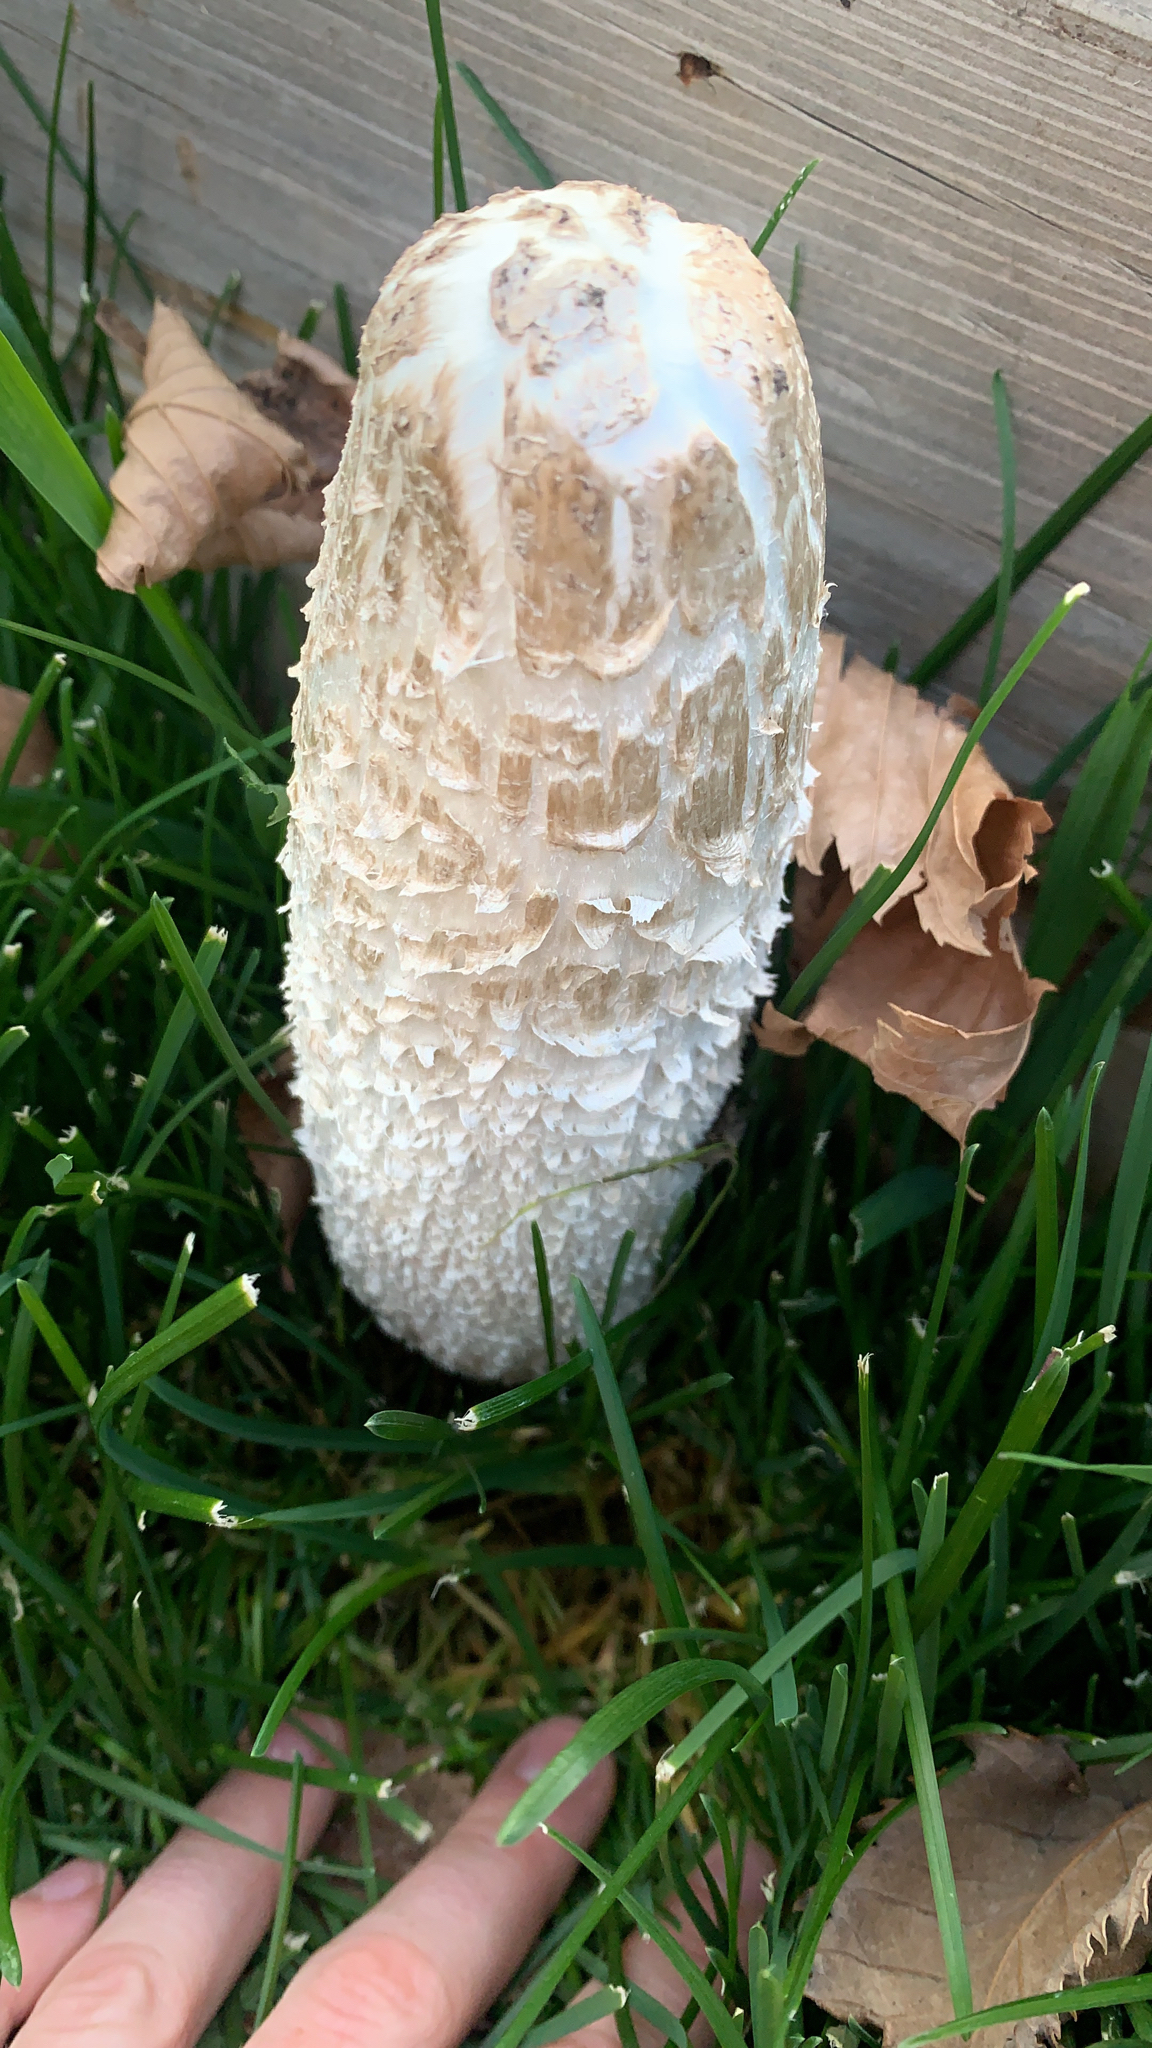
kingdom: Fungi
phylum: Basidiomycota
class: Agaricomycetes
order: Agaricales
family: Agaricaceae
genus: Coprinus
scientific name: Coprinus comatus
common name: Lawyer's wig
